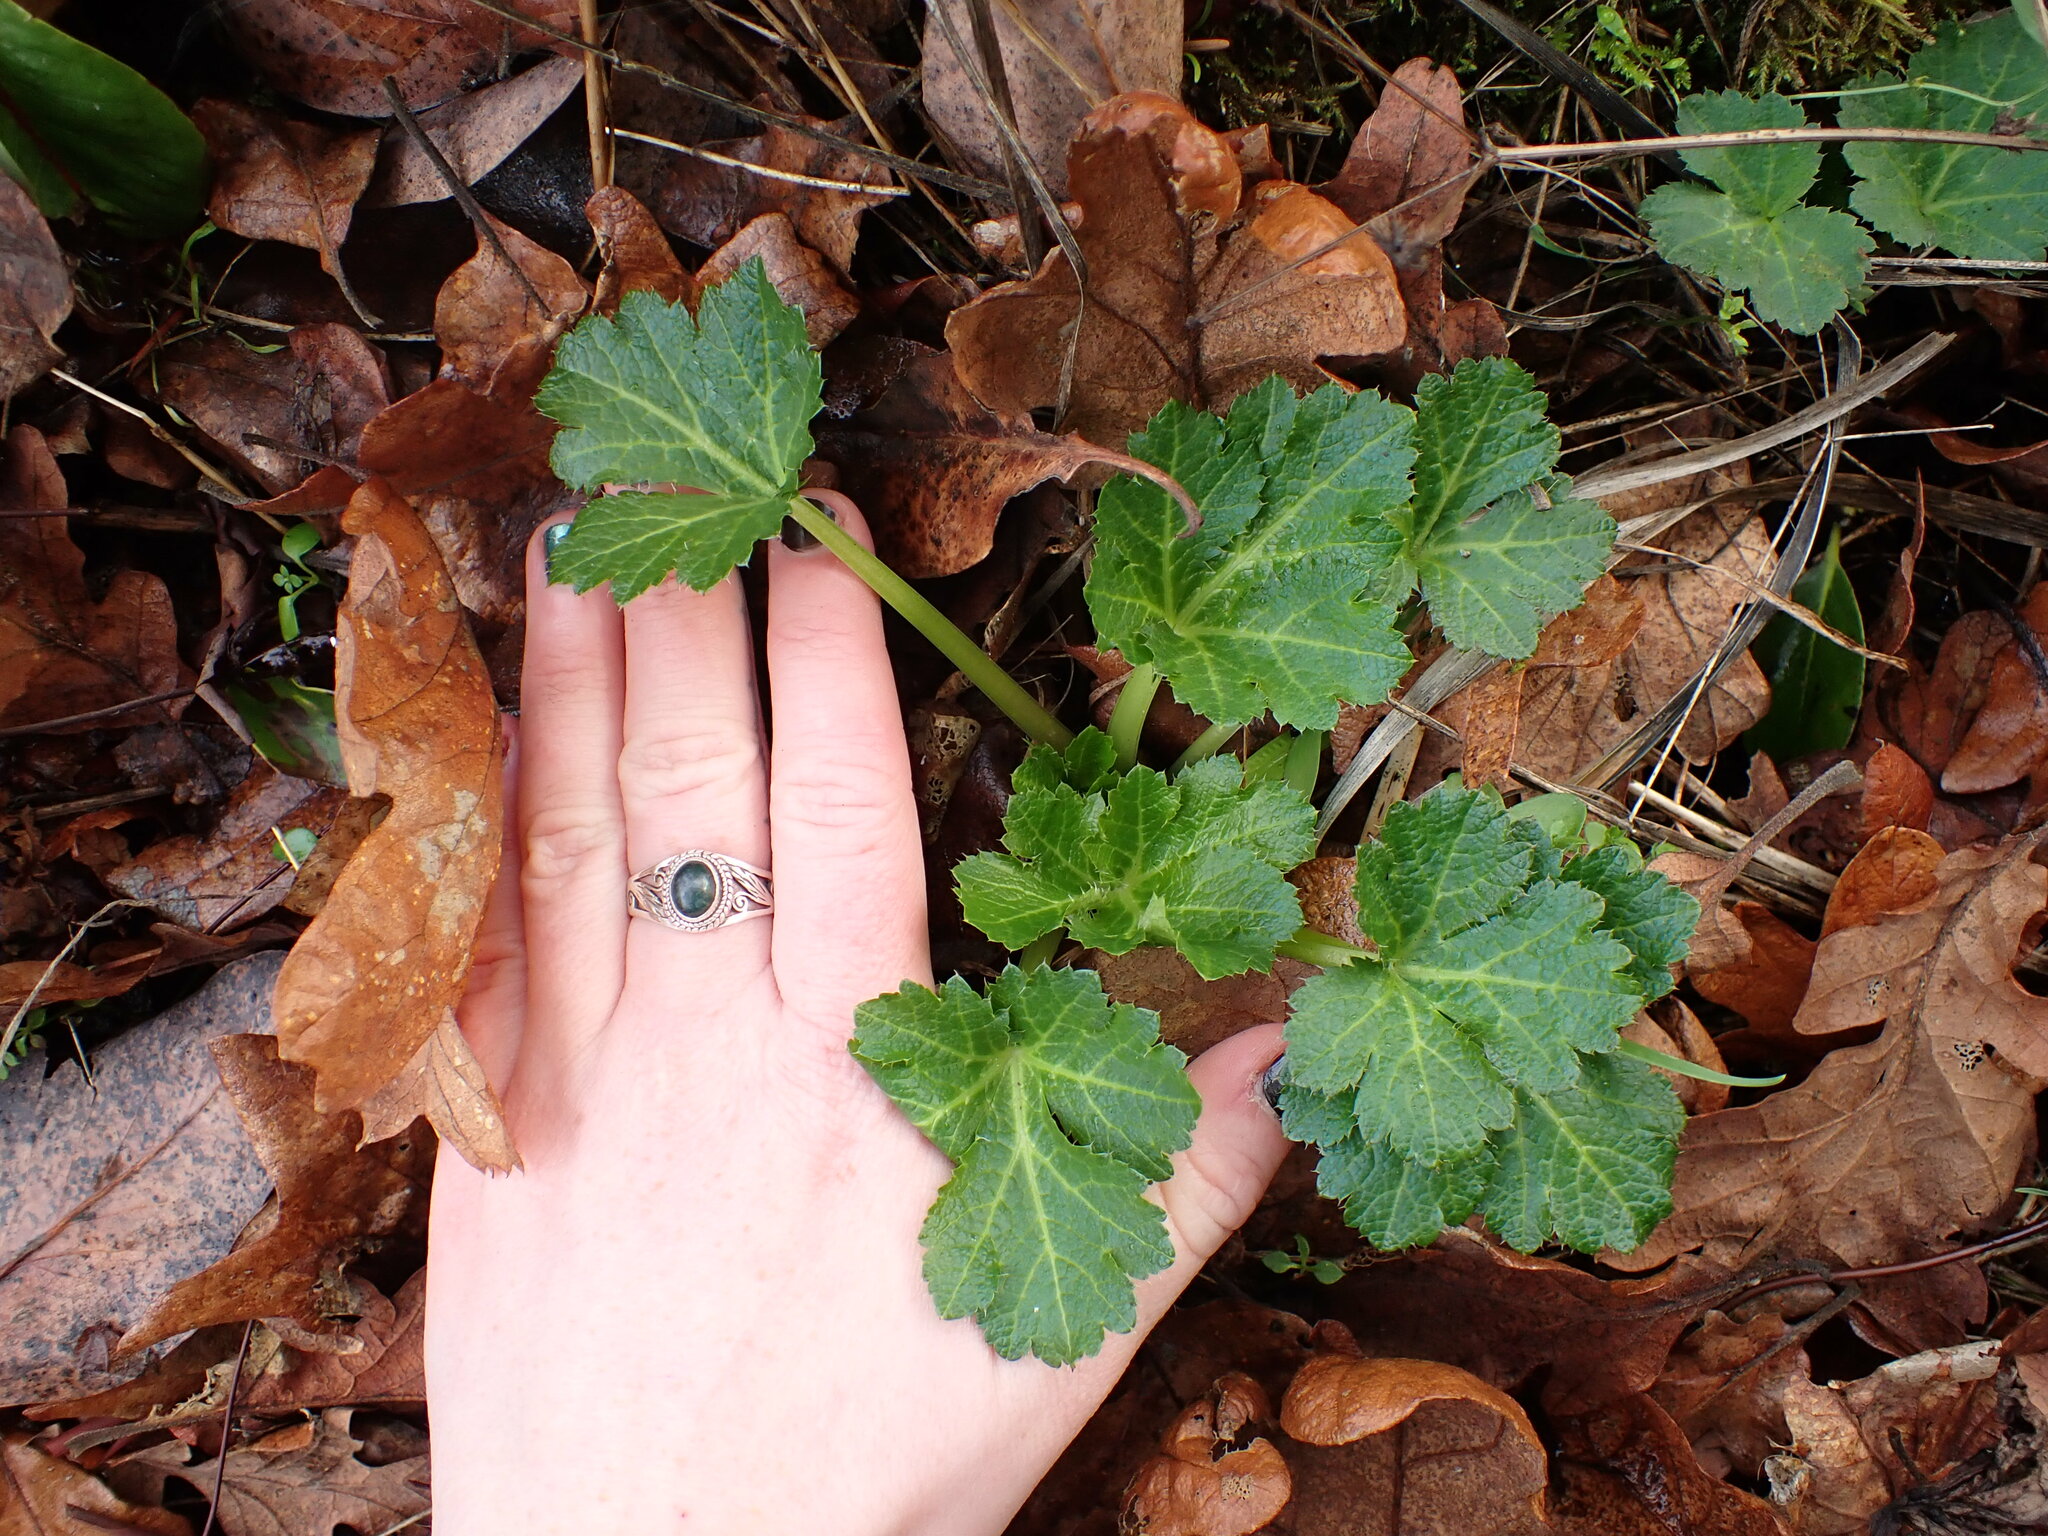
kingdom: Plantae
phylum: Tracheophyta
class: Magnoliopsida
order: Apiales
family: Apiaceae
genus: Sanicula
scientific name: Sanicula crassicaulis
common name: Western snakeroot
